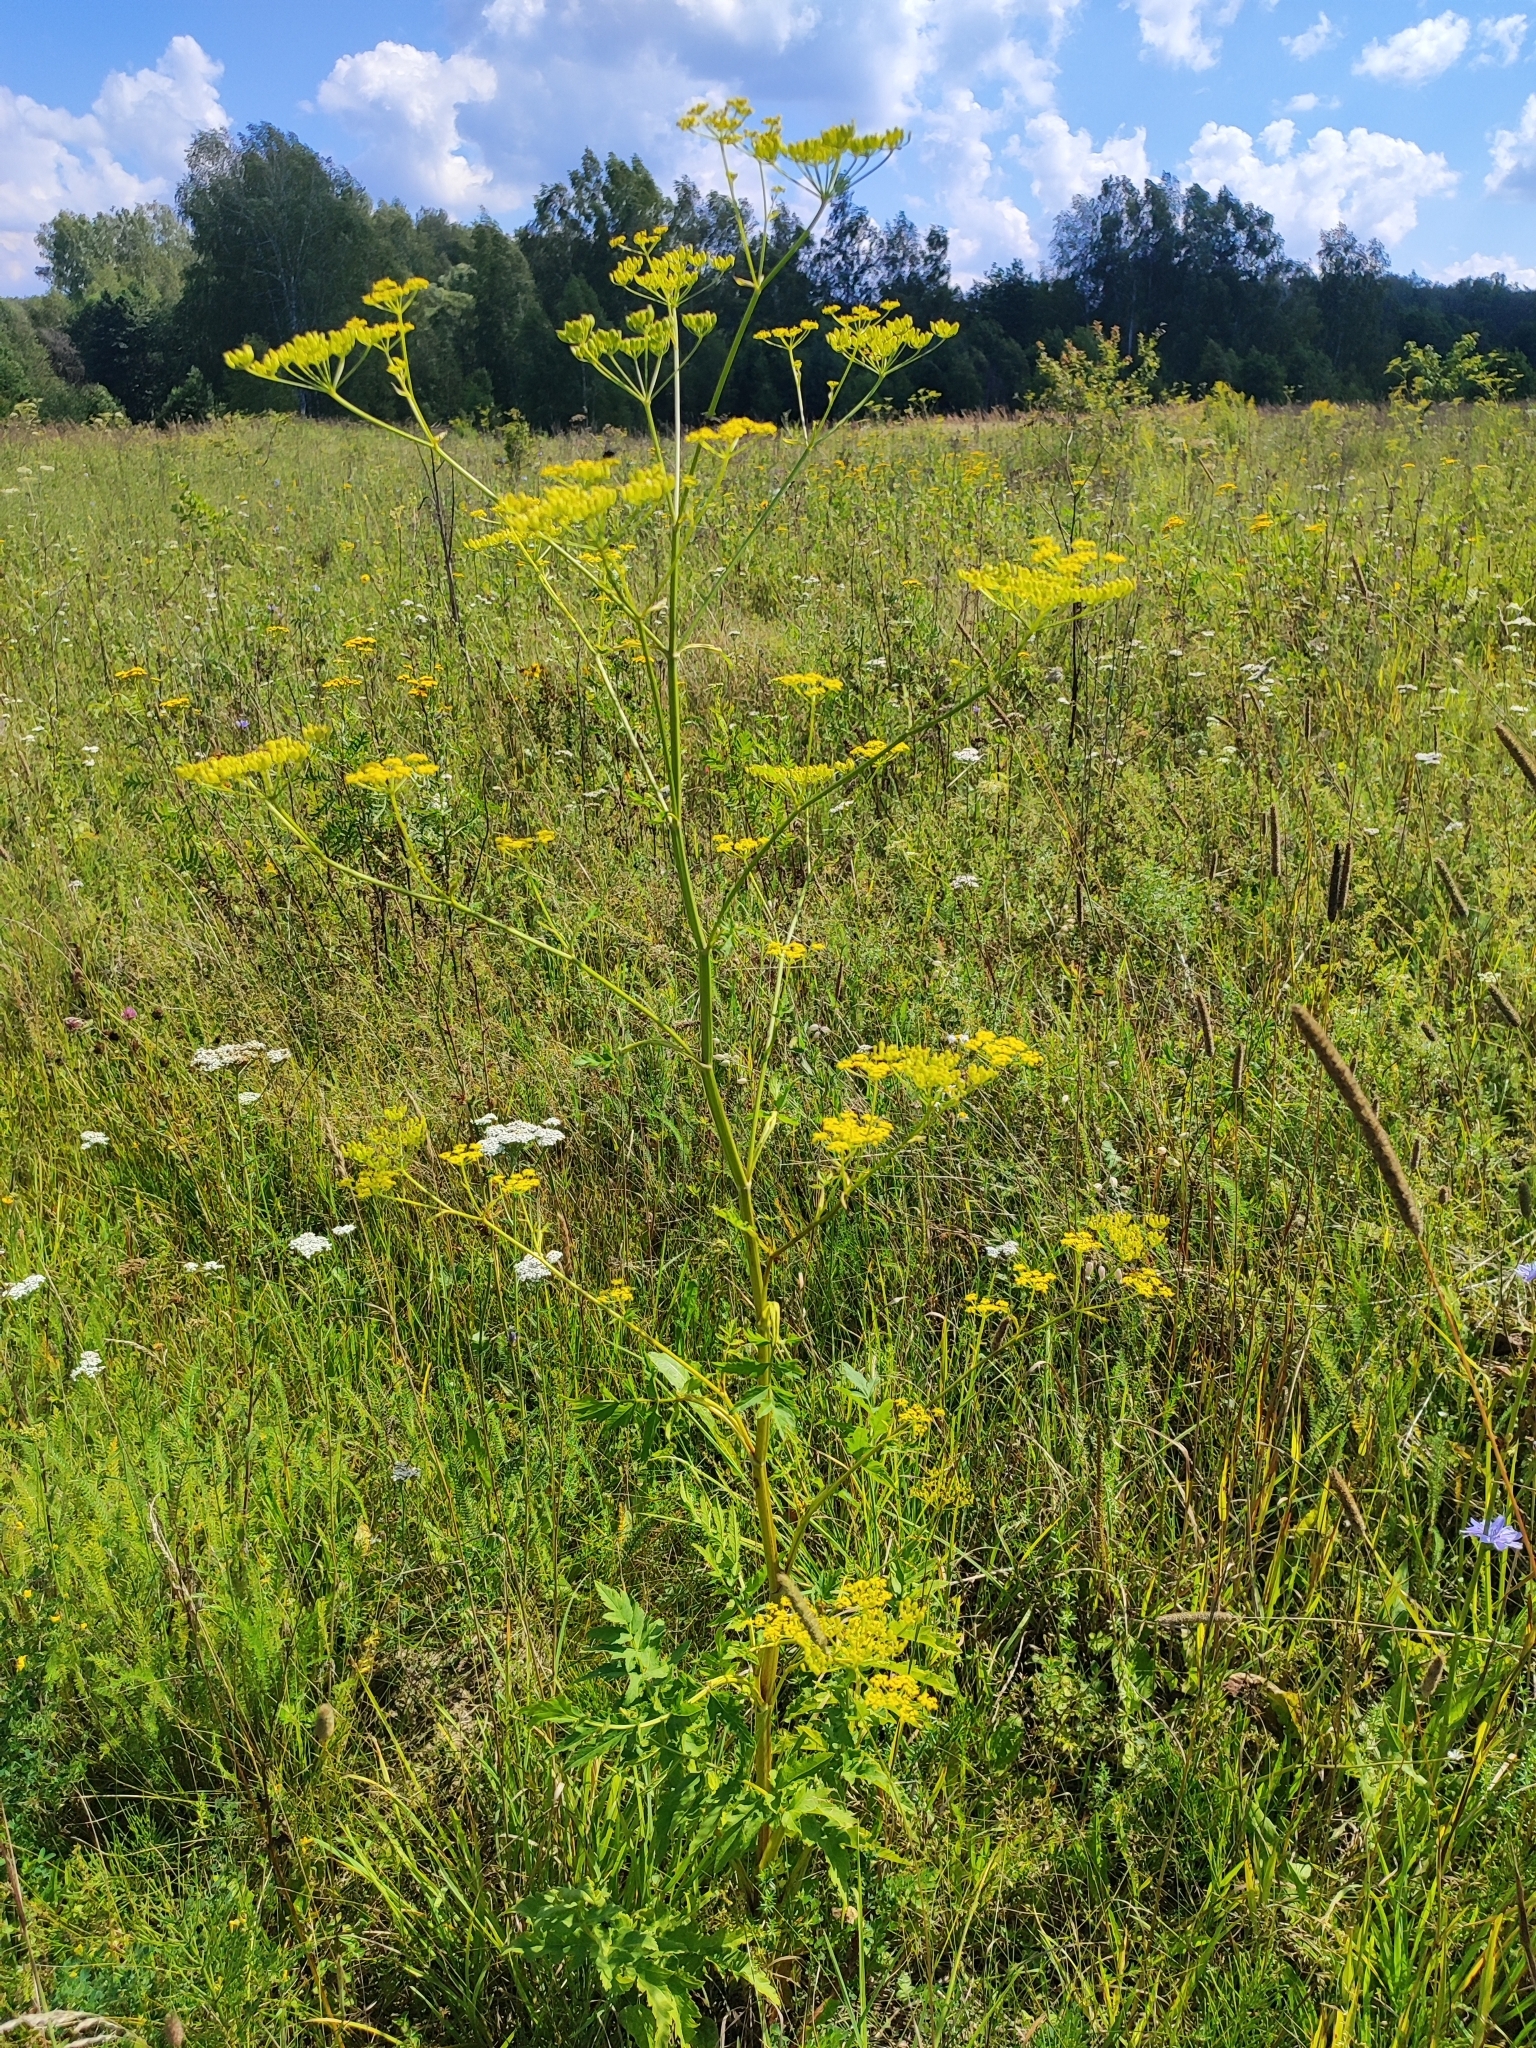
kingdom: Plantae
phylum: Tracheophyta
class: Magnoliopsida
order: Apiales
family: Apiaceae
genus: Pastinaca
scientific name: Pastinaca sativa
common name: Wild parsnip
